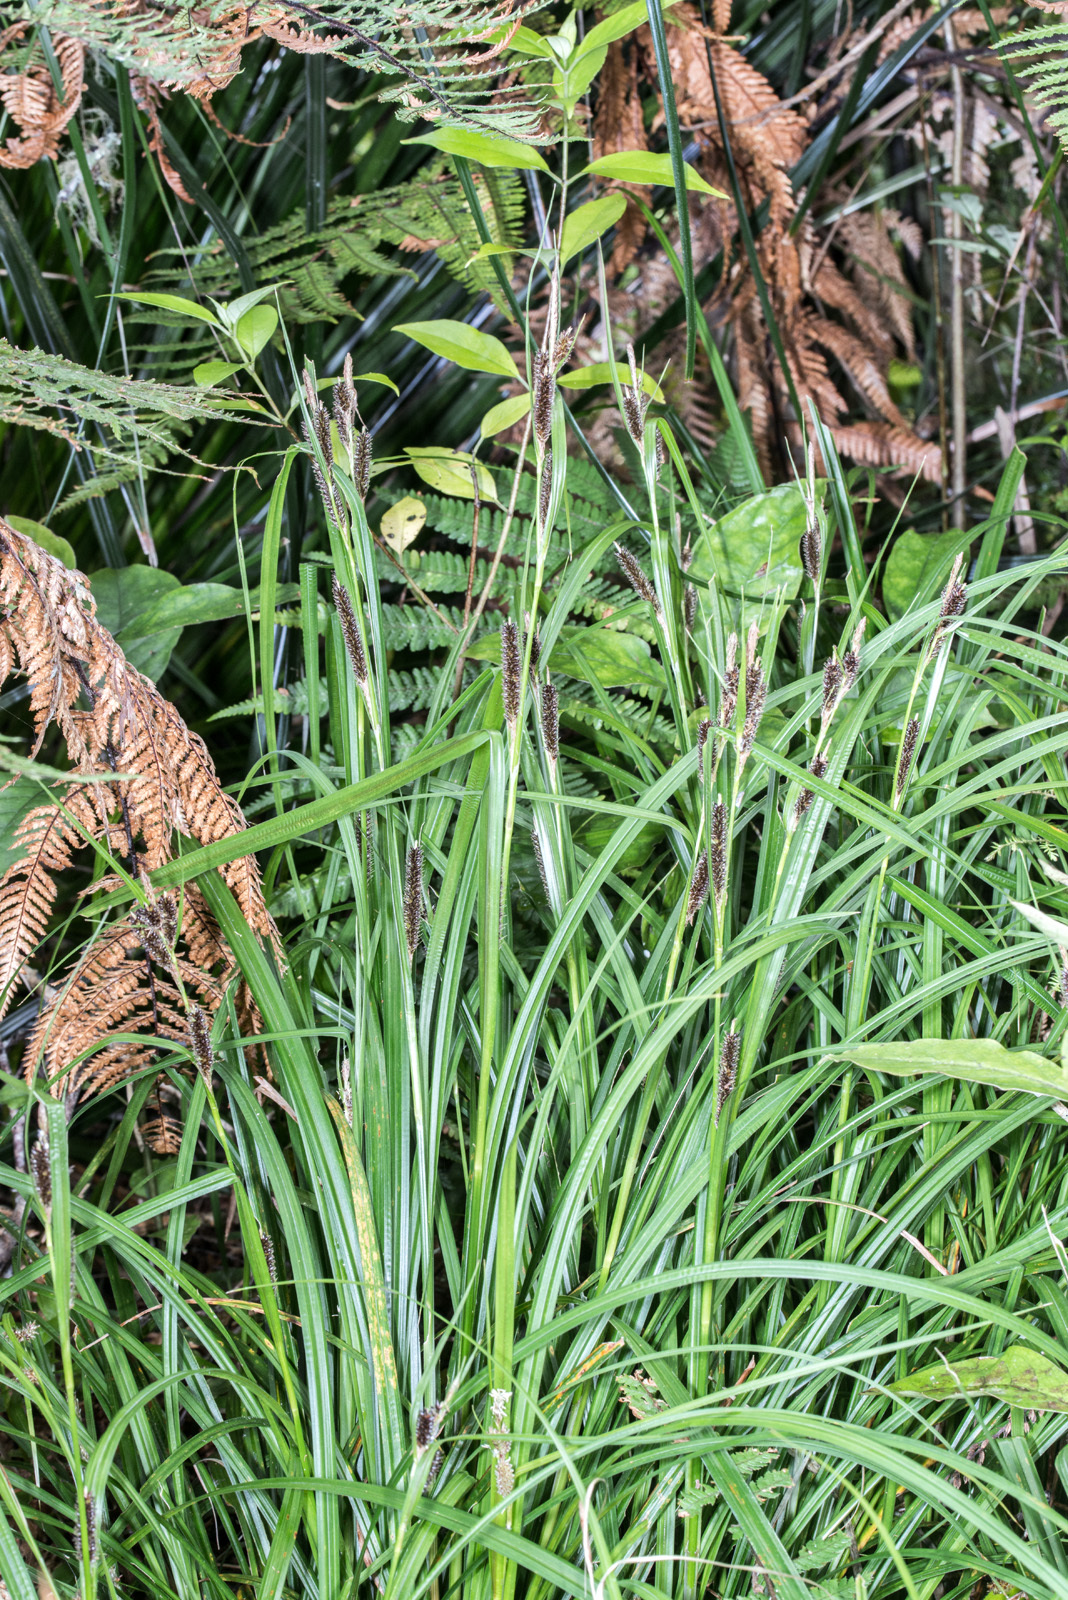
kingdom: Plantae
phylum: Tracheophyta
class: Liliopsida
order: Poales
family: Cyperaceae
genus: Carex
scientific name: Carex lambertiana
